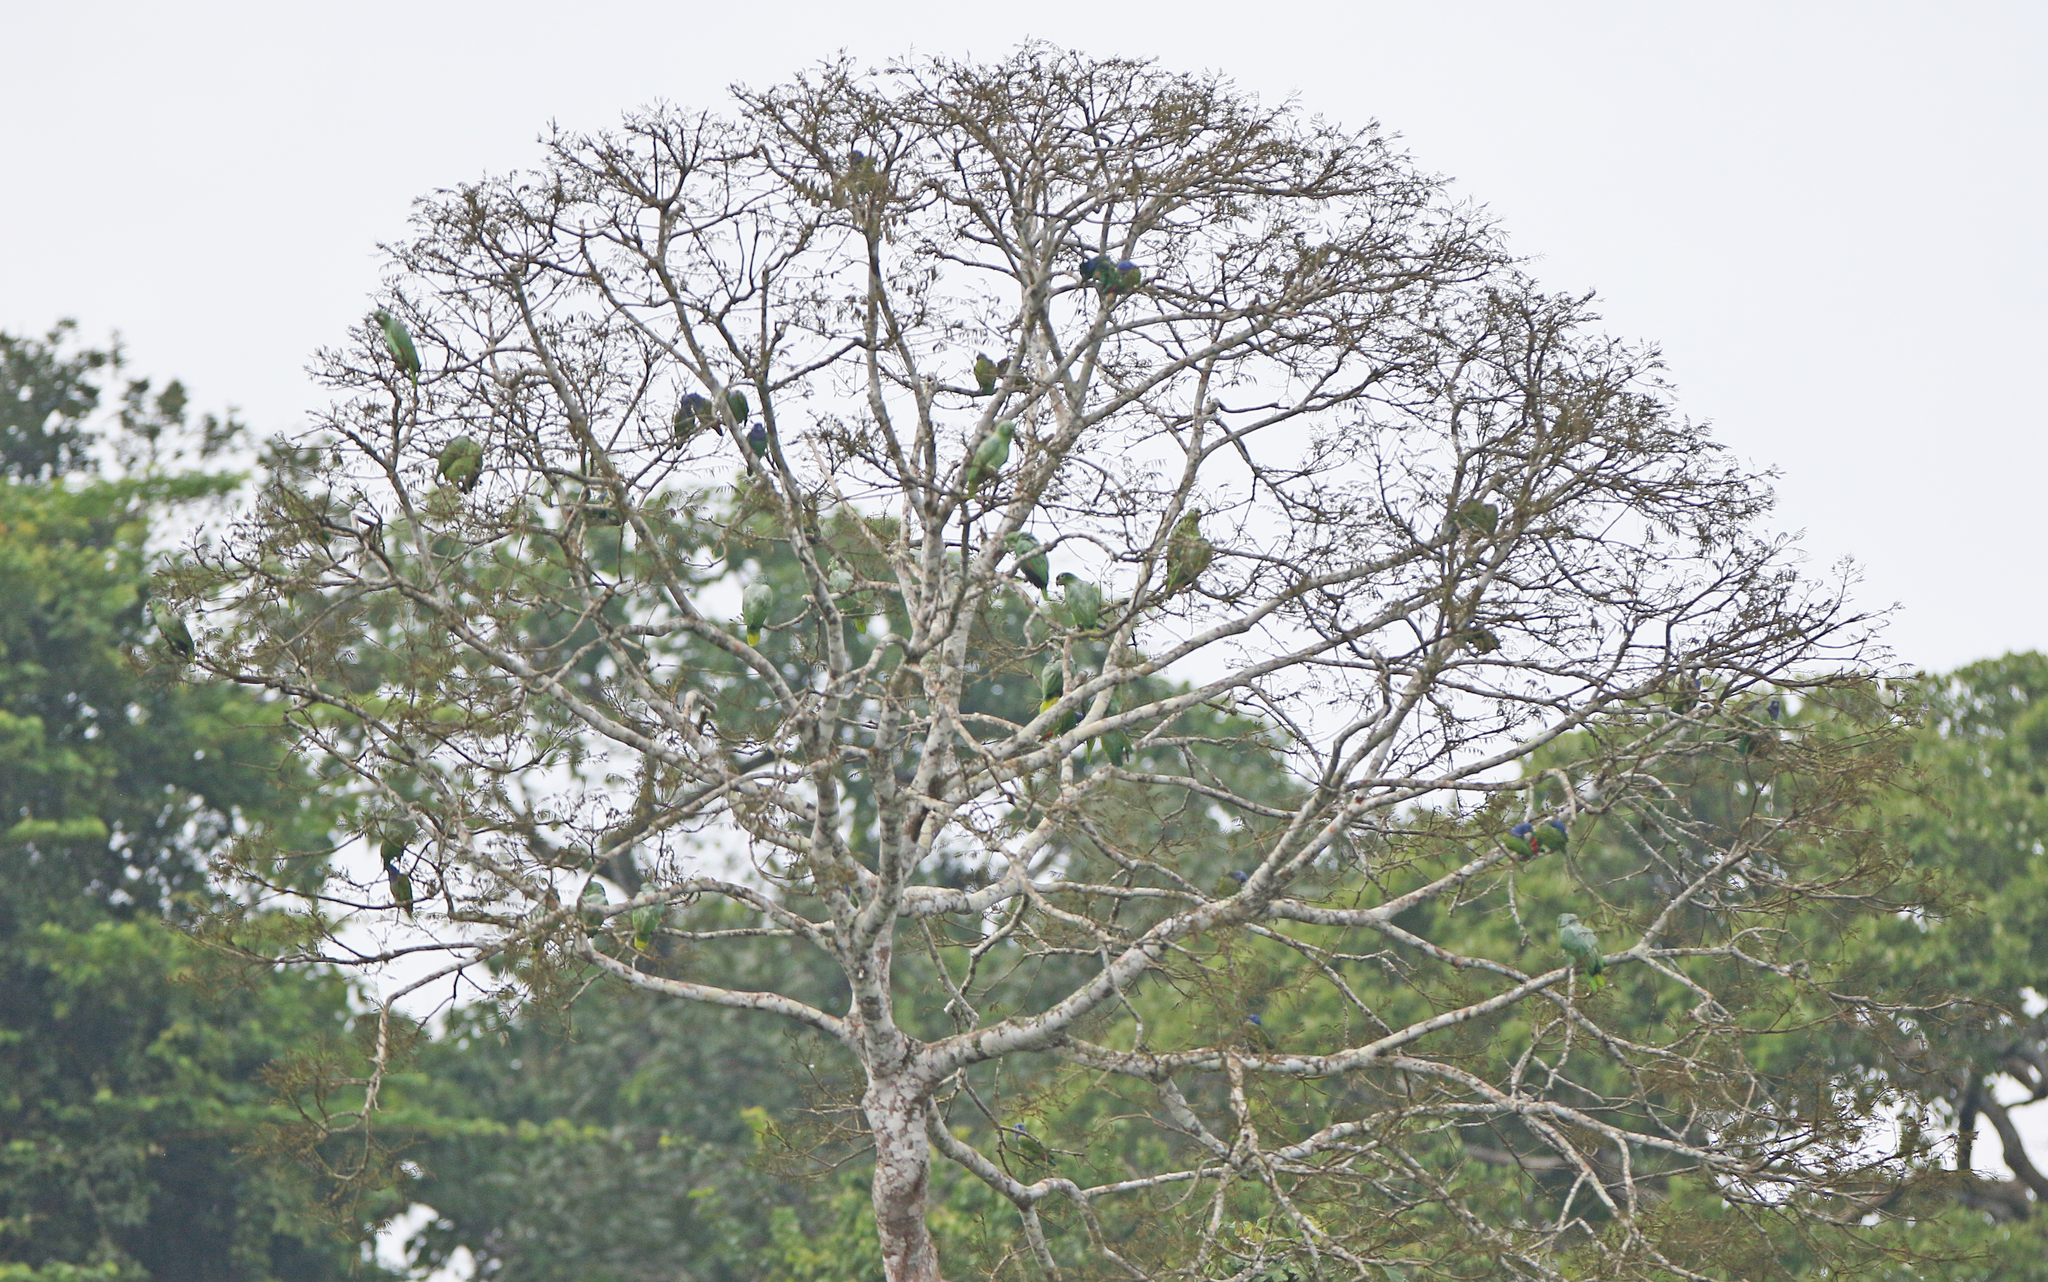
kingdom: Animalia
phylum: Chordata
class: Aves
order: Psittaciformes
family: Psittacidae
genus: Amazona
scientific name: Amazona farinosa
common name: Mealy parrot
